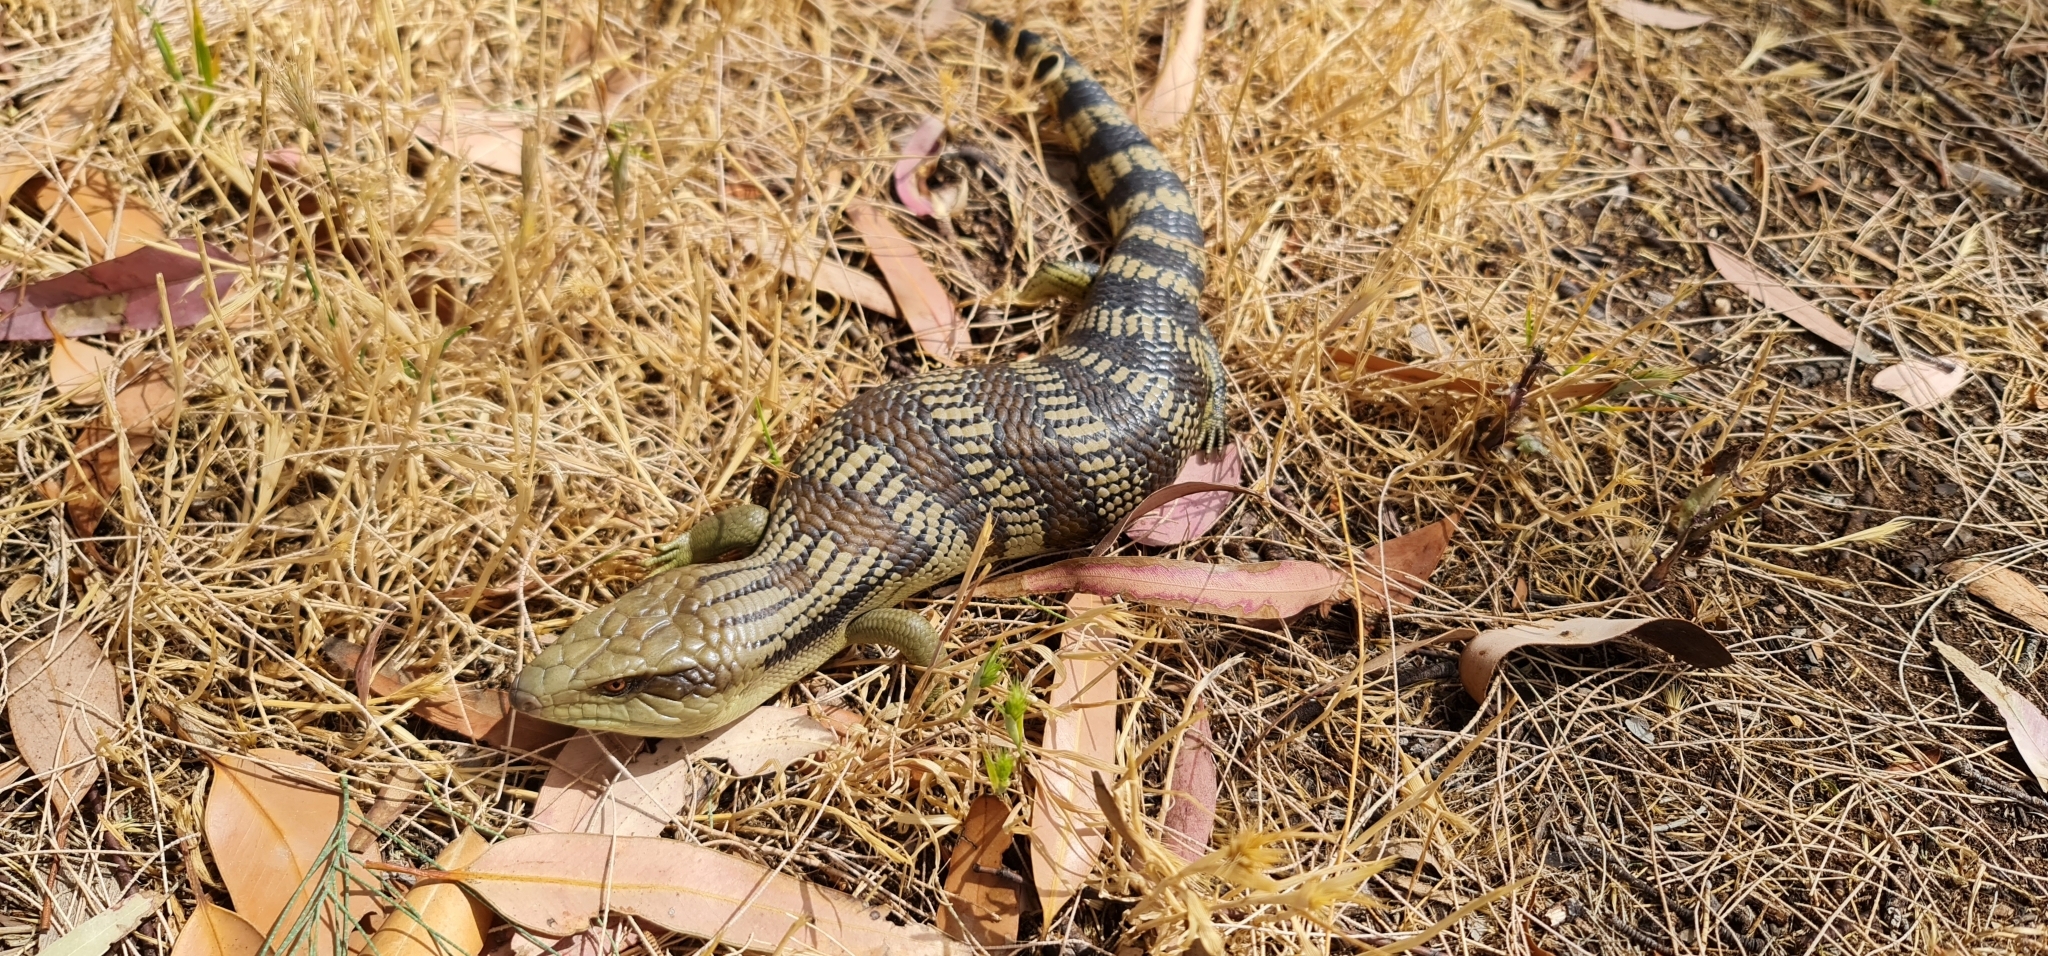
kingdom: Animalia
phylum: Chordata
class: Squamata
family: Scincidae
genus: Tiliqua
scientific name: Tiliqua scincoides
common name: Common bluetongue
